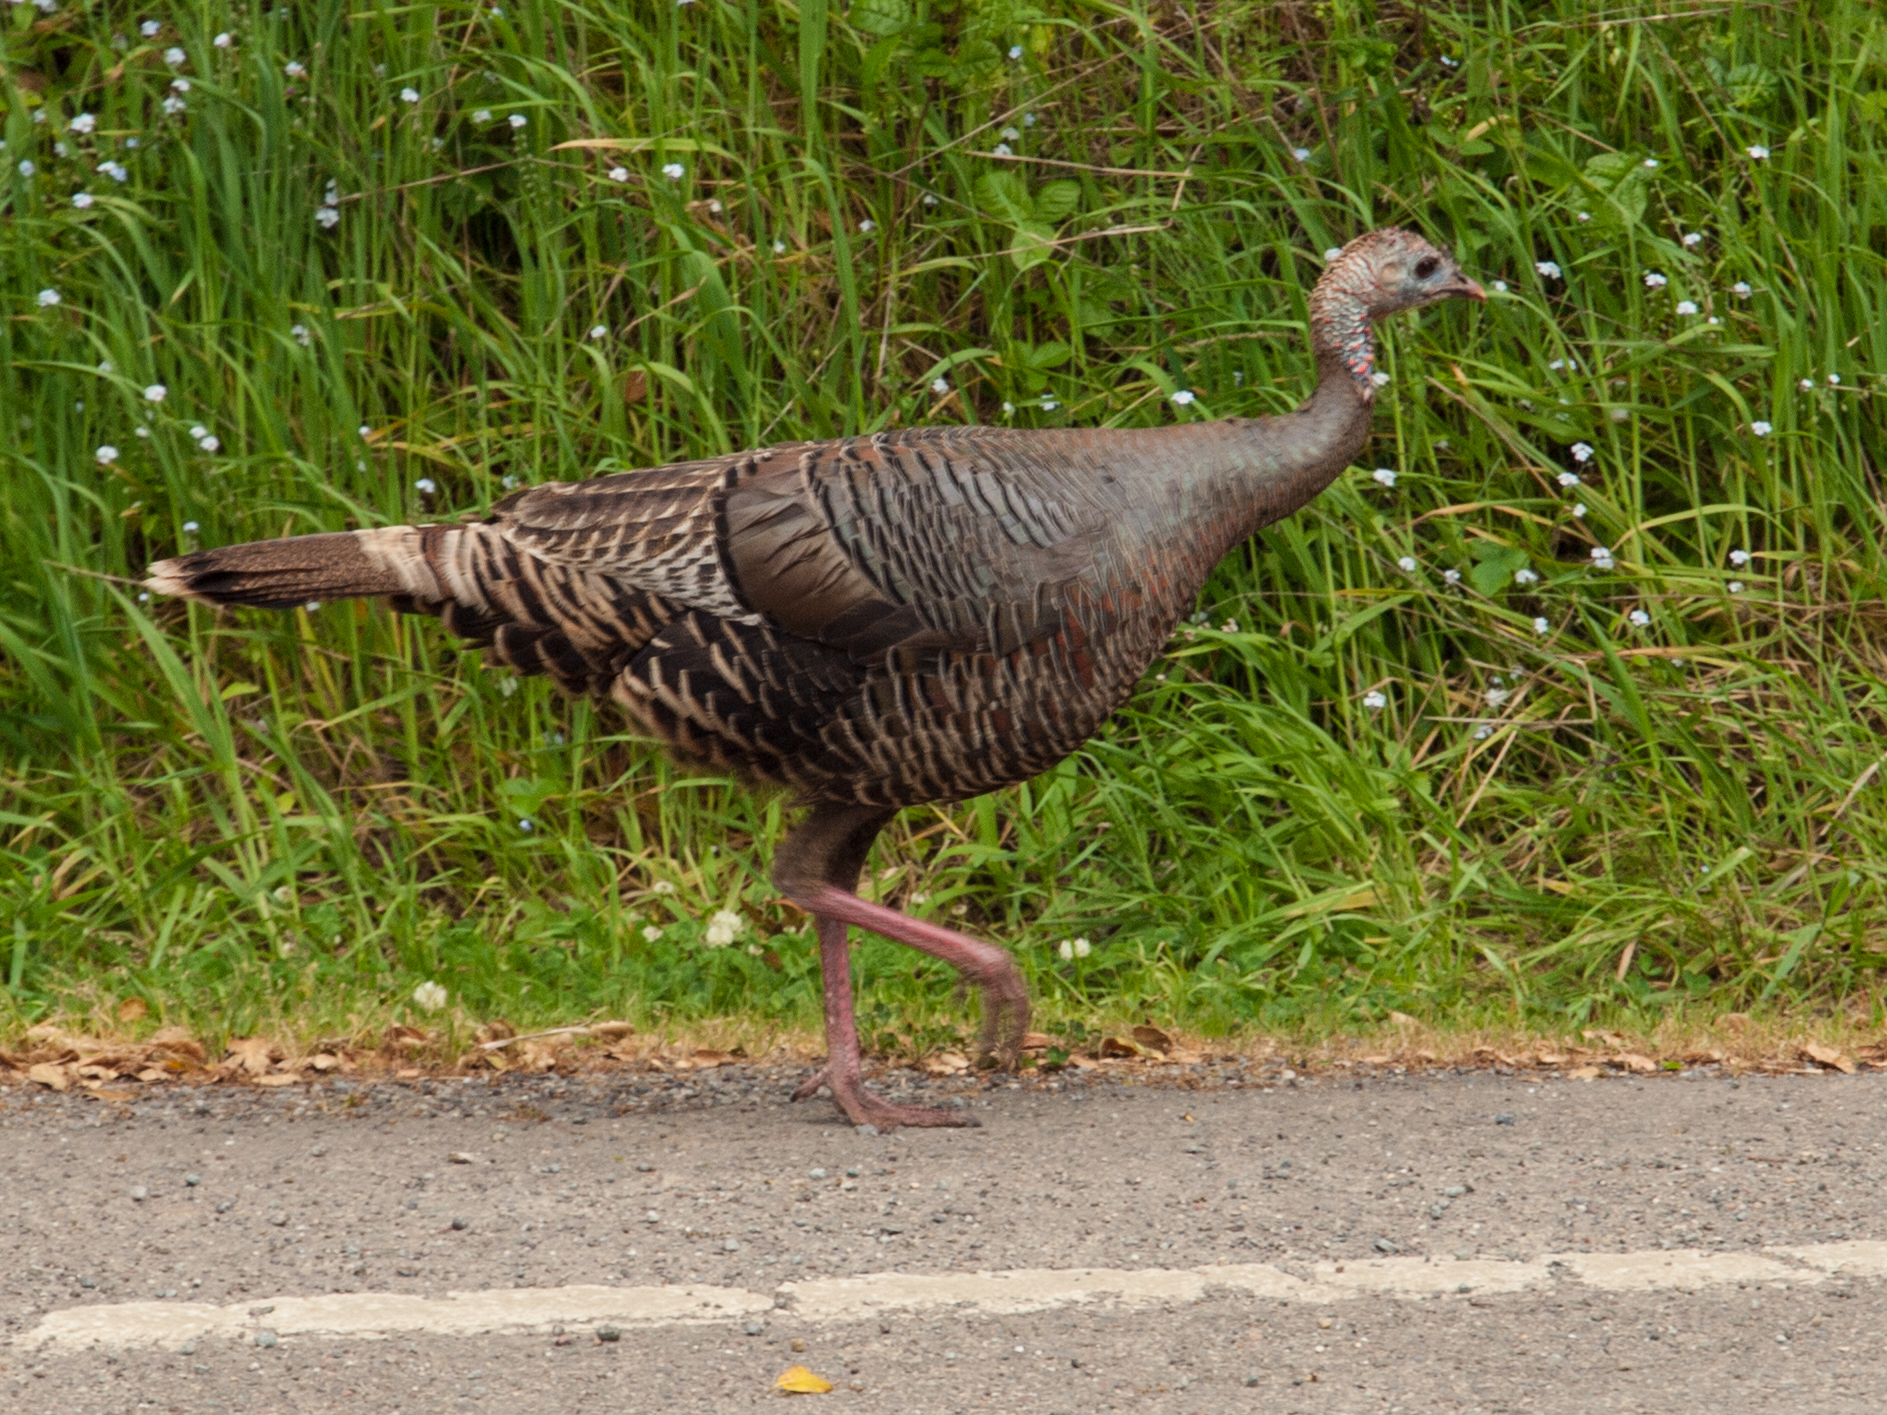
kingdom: Animalia
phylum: Chordata
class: Aves
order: Galliformes
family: Phasianidae
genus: Meleagris
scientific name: Meleagris gallopavo
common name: Wild turkey
